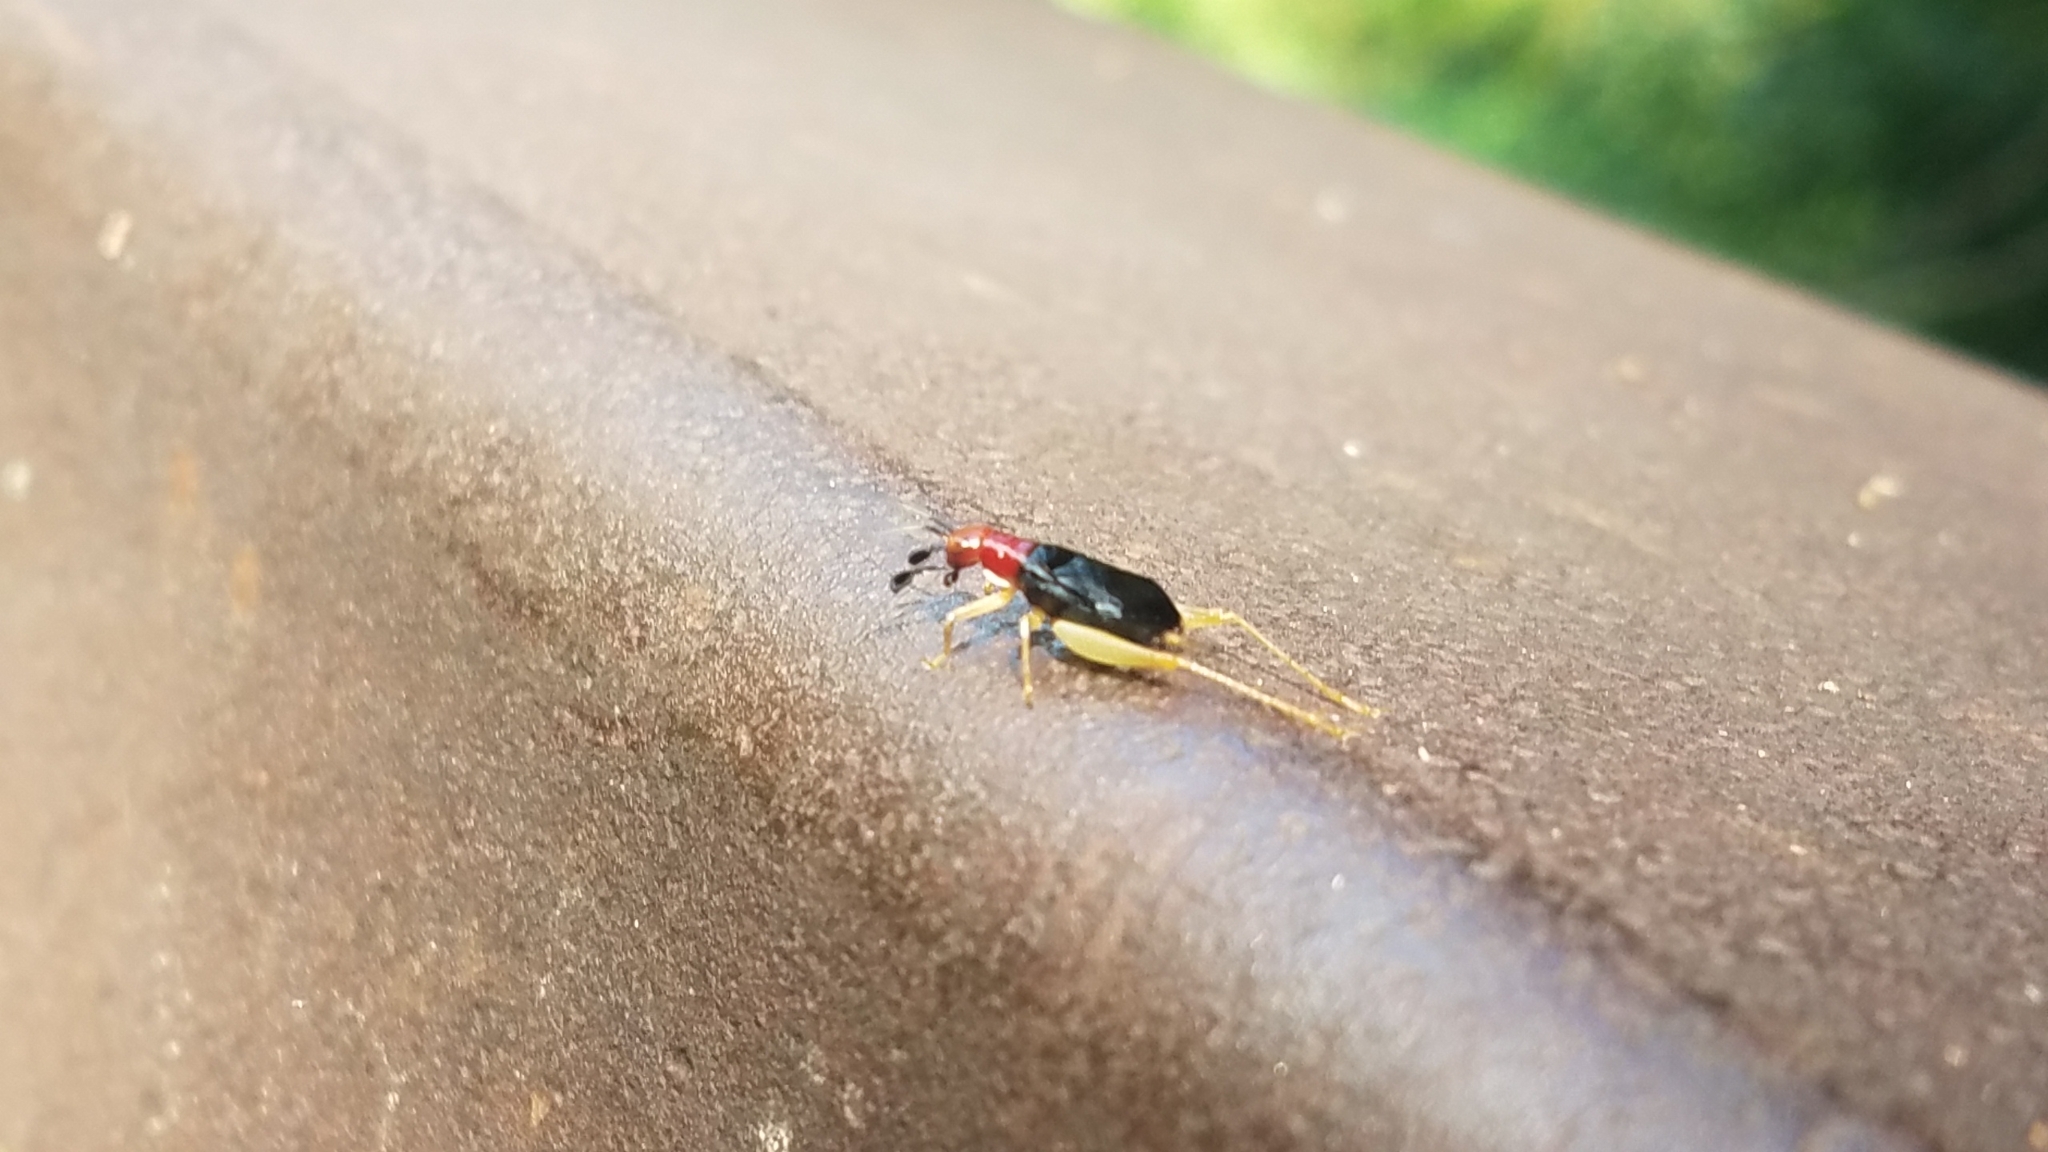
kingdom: Animalia
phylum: Arthropoda
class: Insecta
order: Orthoptera
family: Trigonidiidae
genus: Phyllopalpus
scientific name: Phyllopalpus pulchellus
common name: Handsome trig
